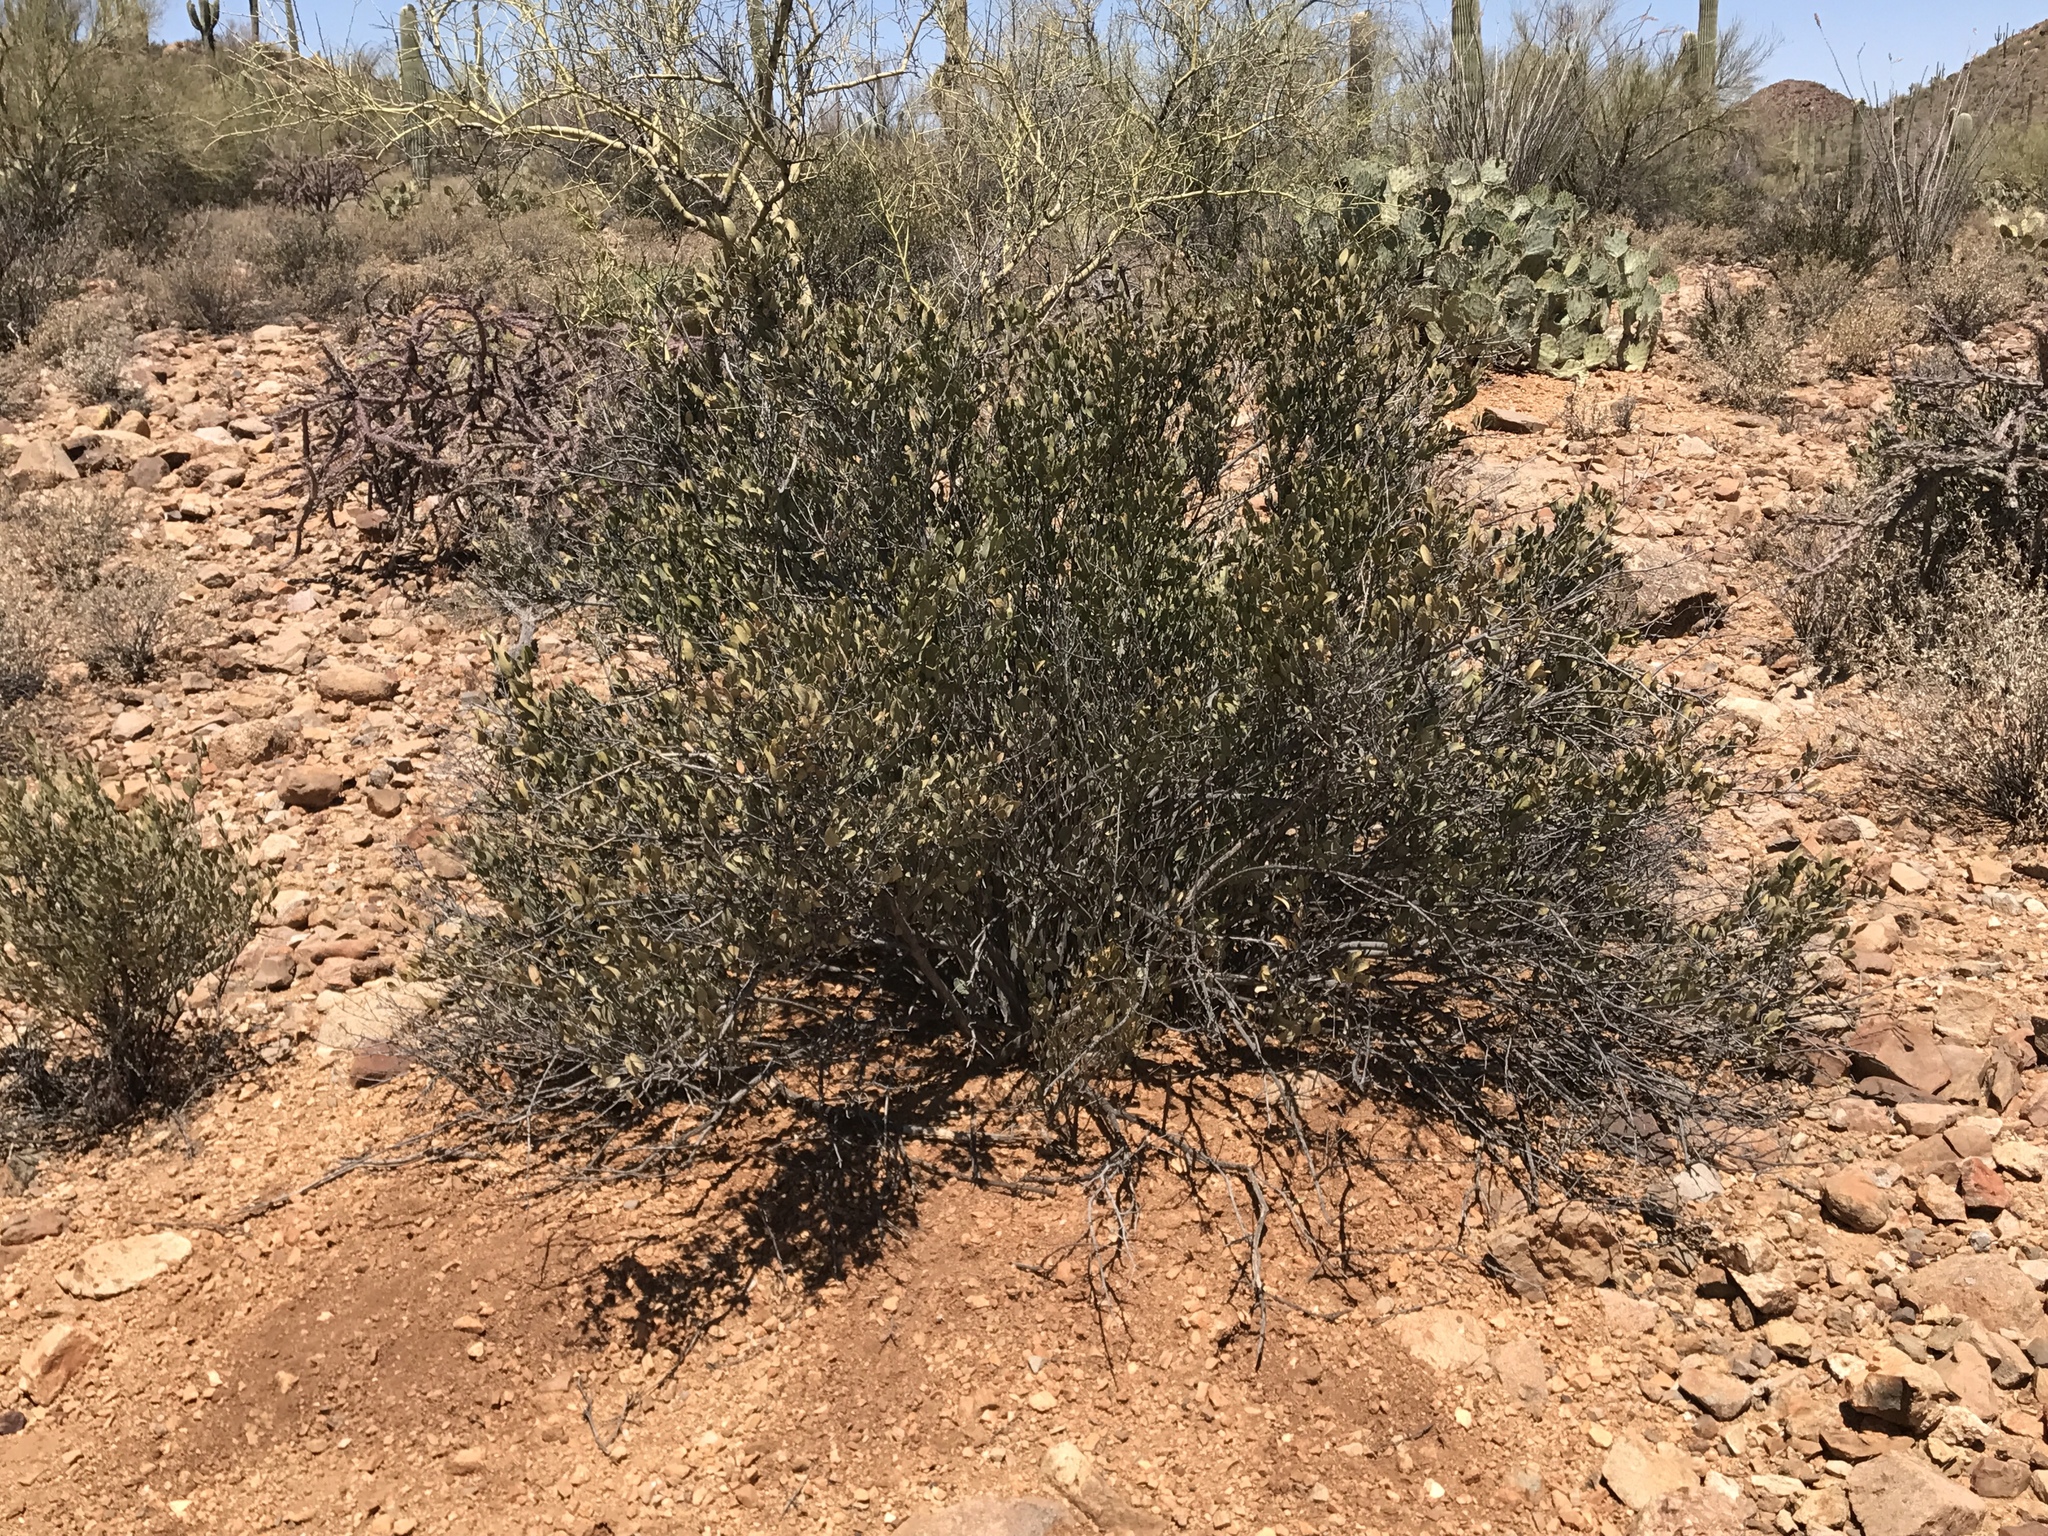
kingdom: Plantae
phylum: Tracheophyta
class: Magnoliopsida
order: Caryophyllales
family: Simmondsiaceae
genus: Simmondsia
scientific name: Simmondsia chinensis
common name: Jojoba
